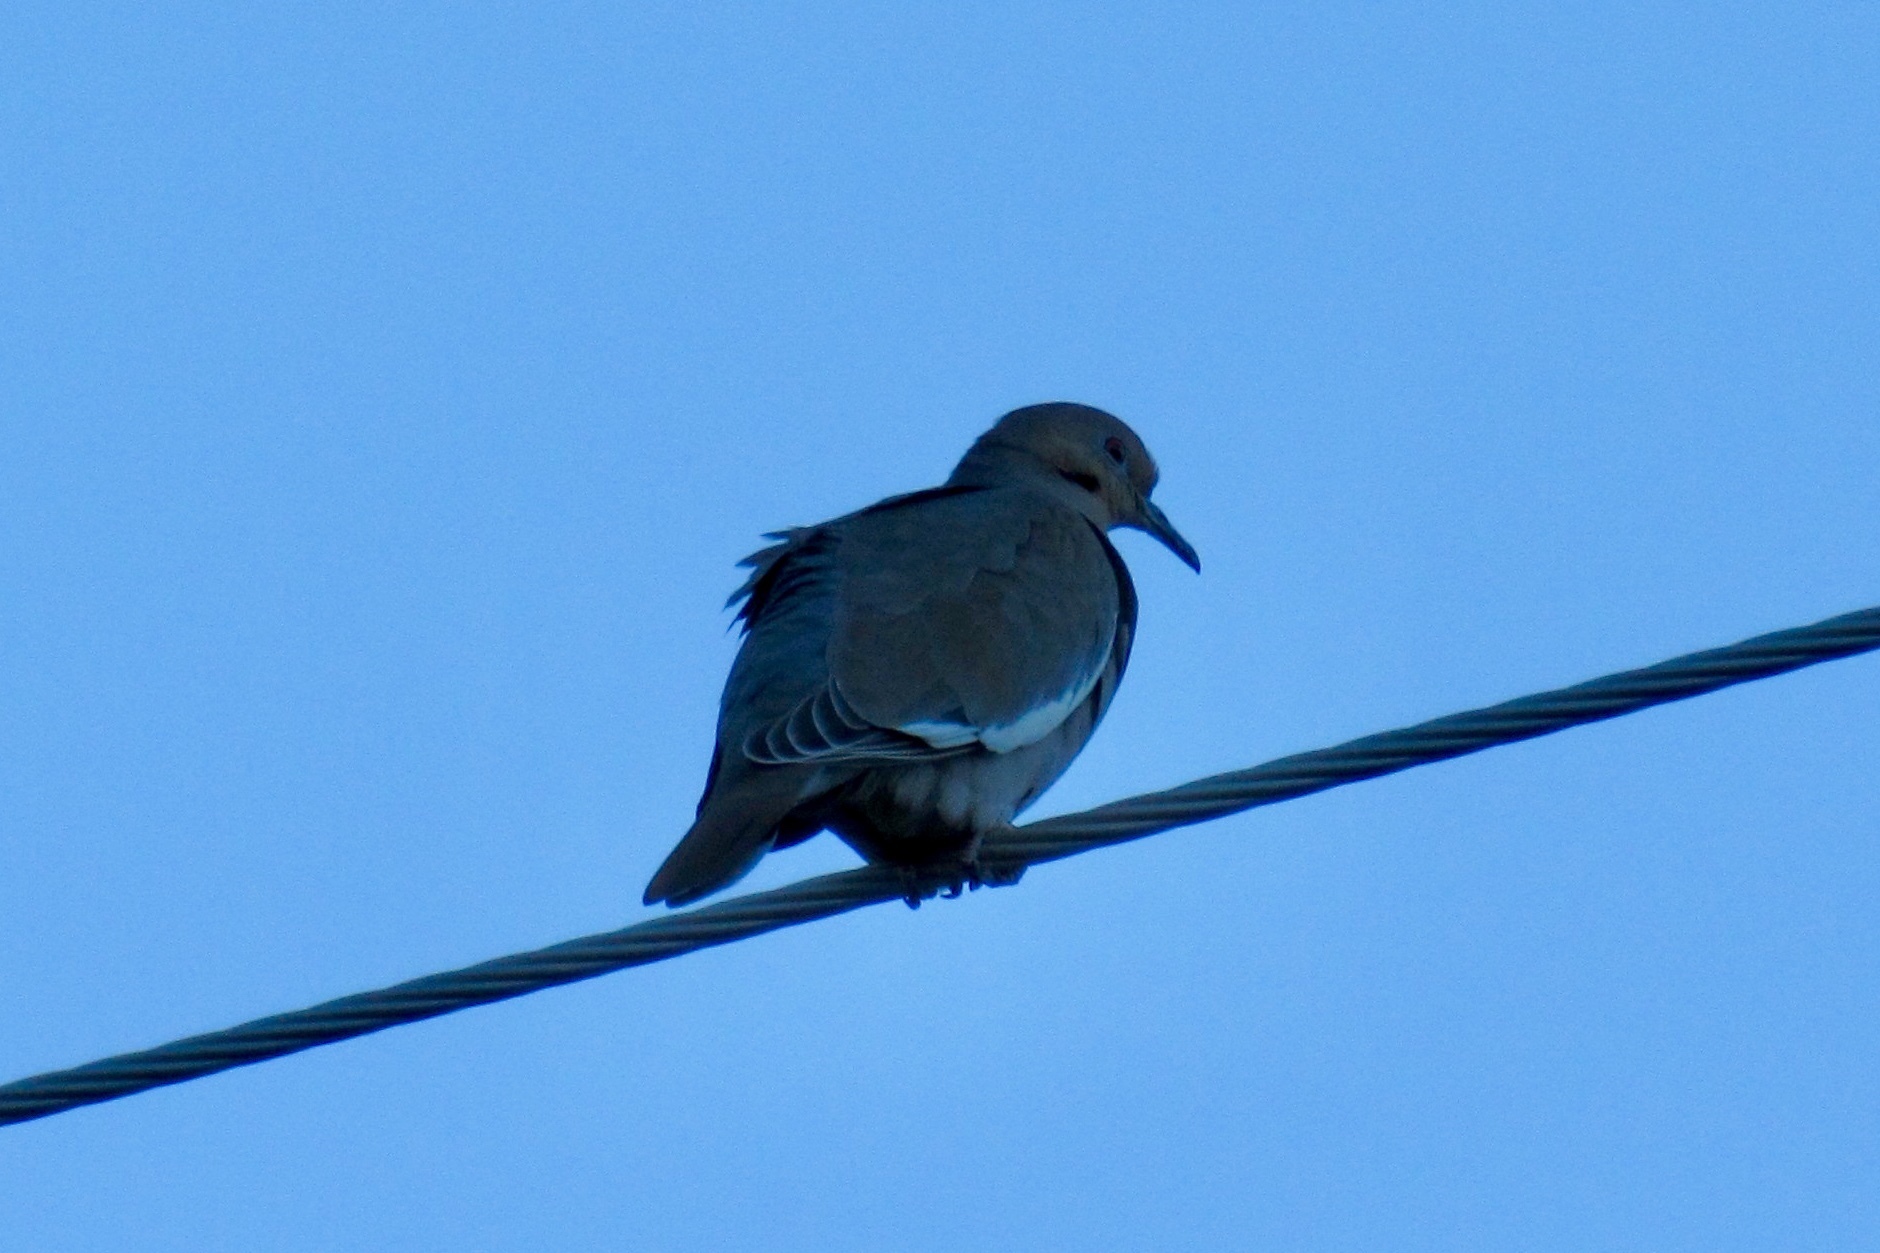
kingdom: Animalia
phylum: Chordata
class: Aves
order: Columbiformes
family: Columbidae
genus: Zenaida
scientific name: Zenaida asiatica
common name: White-winged dove
